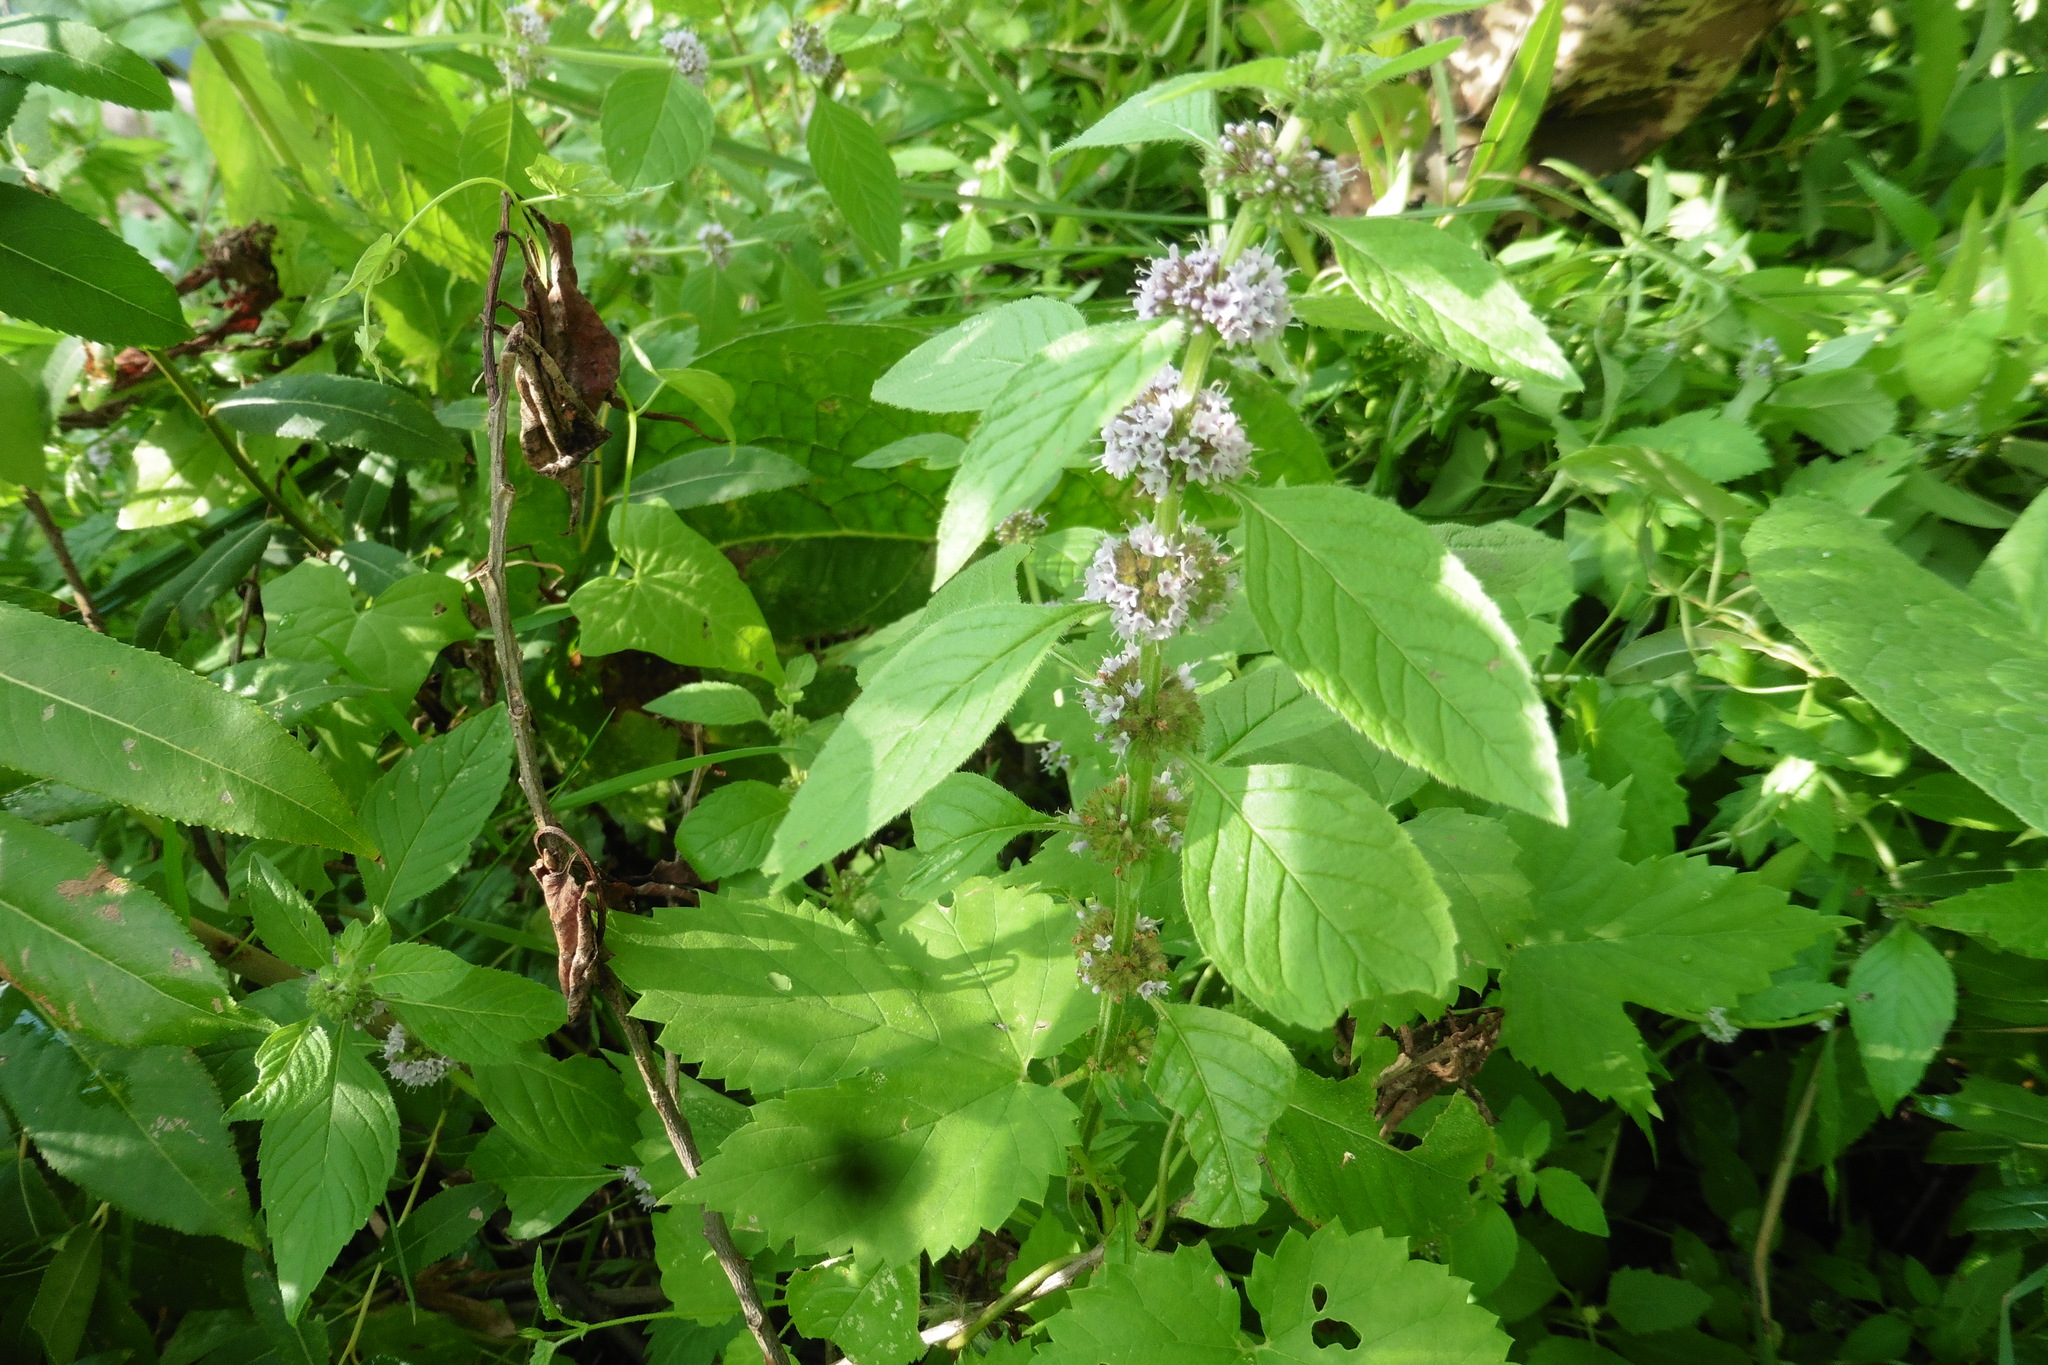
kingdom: Plantae
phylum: Tracheophyta
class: Magnoliopsida
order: Lamiales
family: Lamiaceae
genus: Mentha
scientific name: Mentha arvensis
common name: Corn mint
